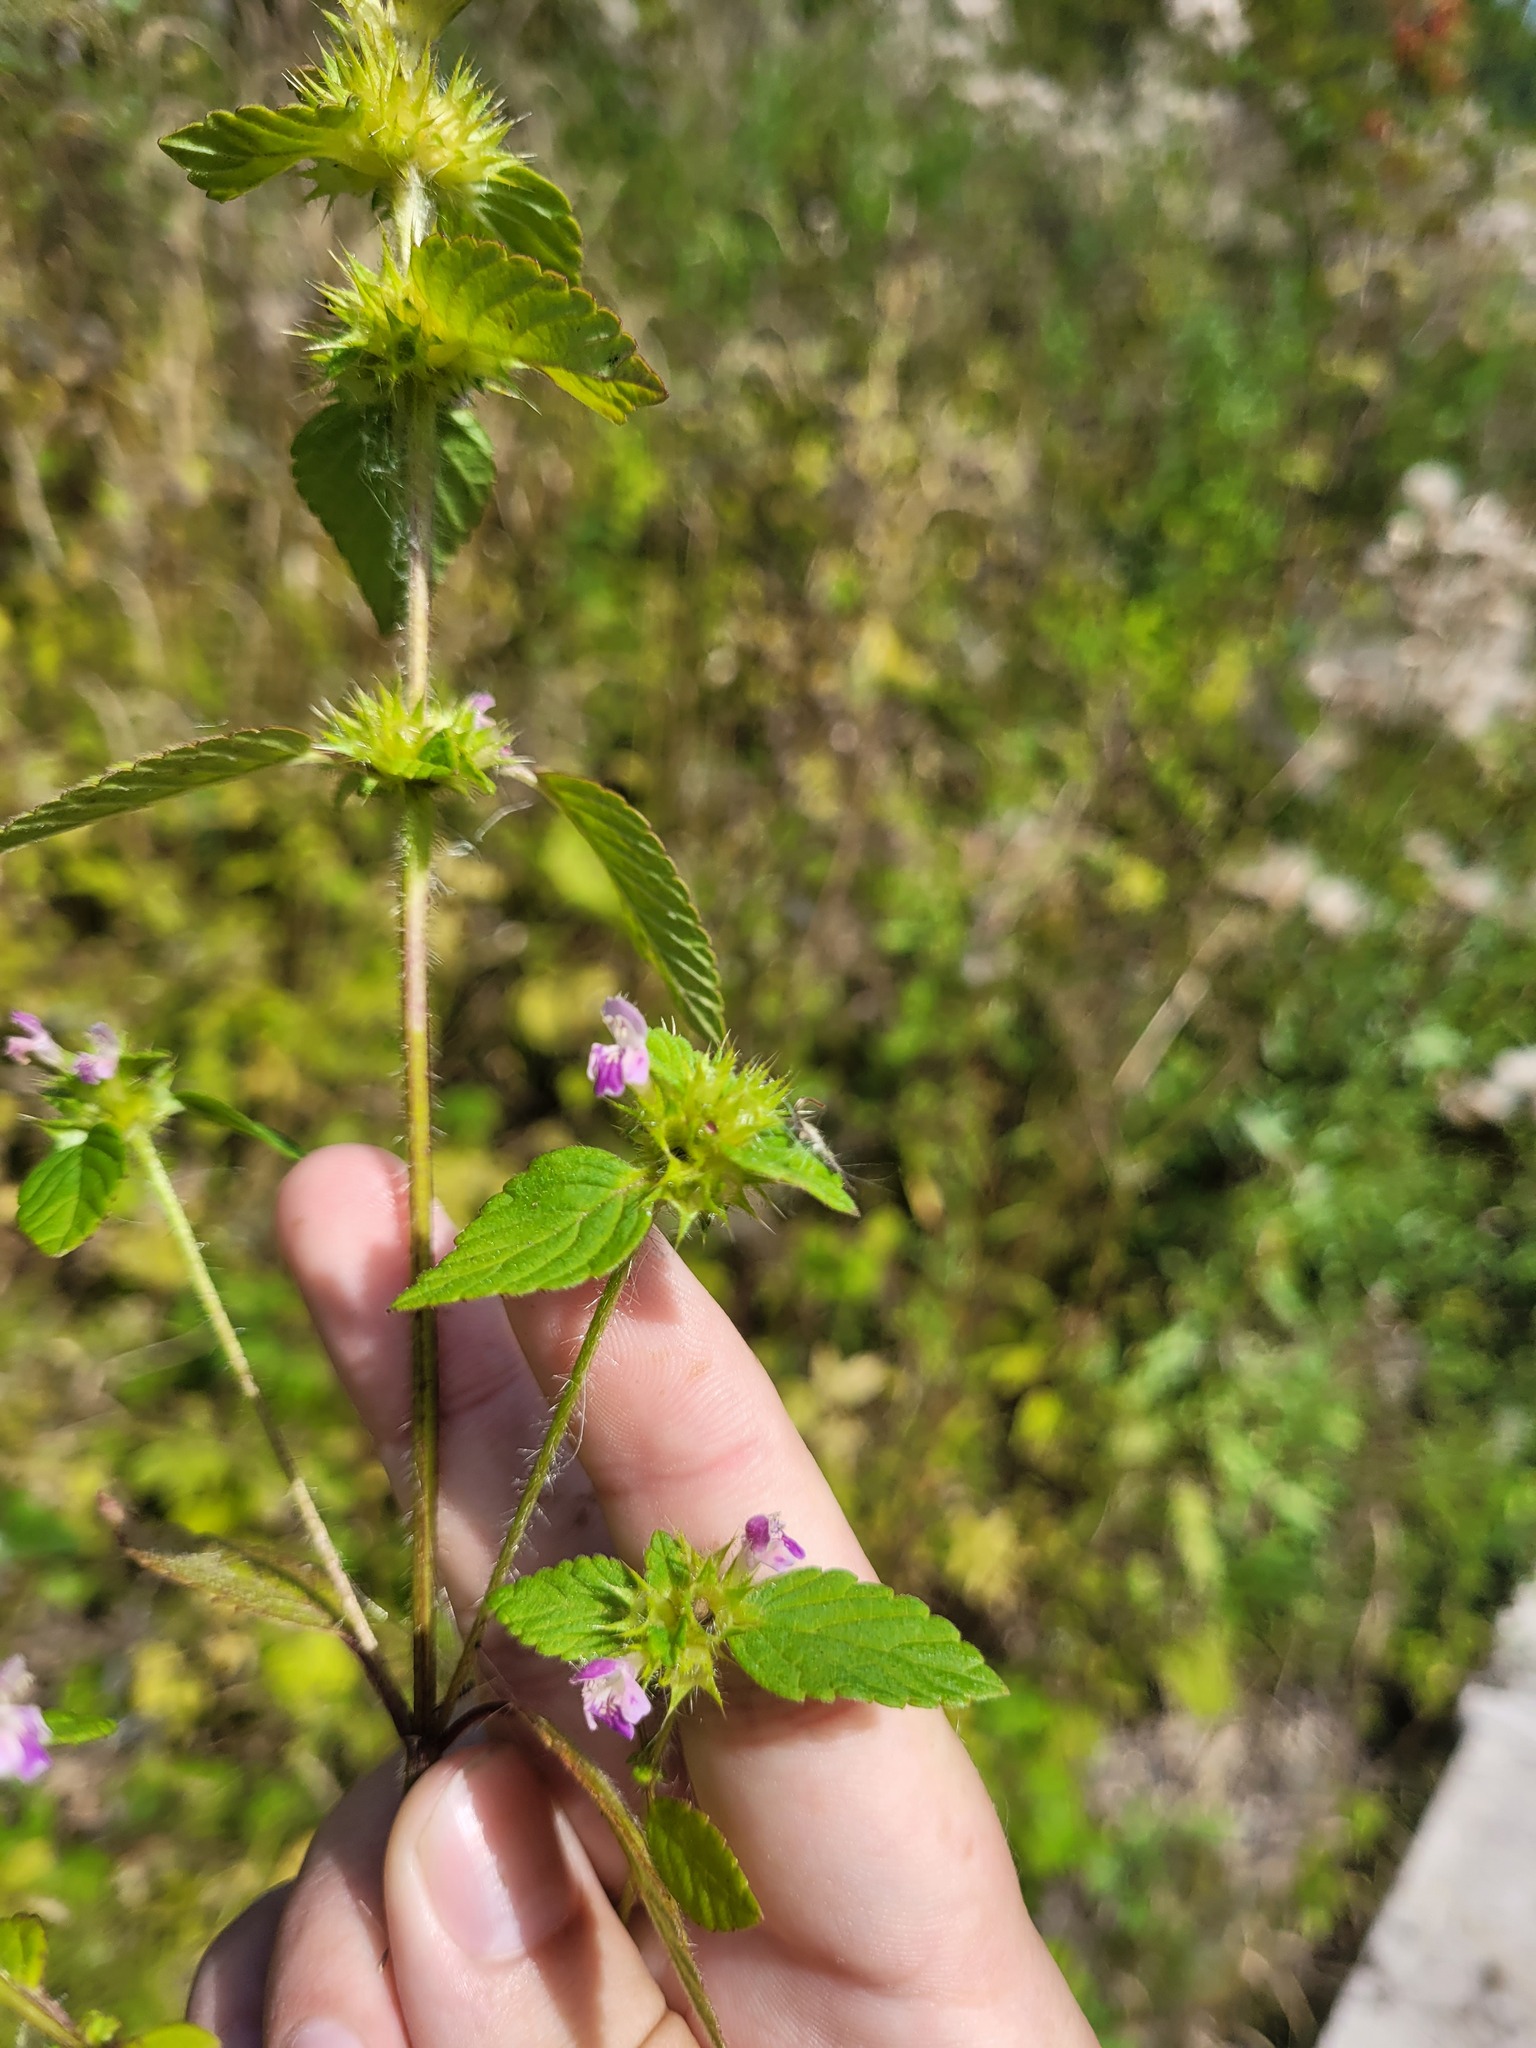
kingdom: Plantae
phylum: Tracheophyta
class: Magnoliopsida
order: Lamiales
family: Lamiaceae
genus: Galeopsis
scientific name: Galeopsis bifida
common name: Bifid hemp-nettle
